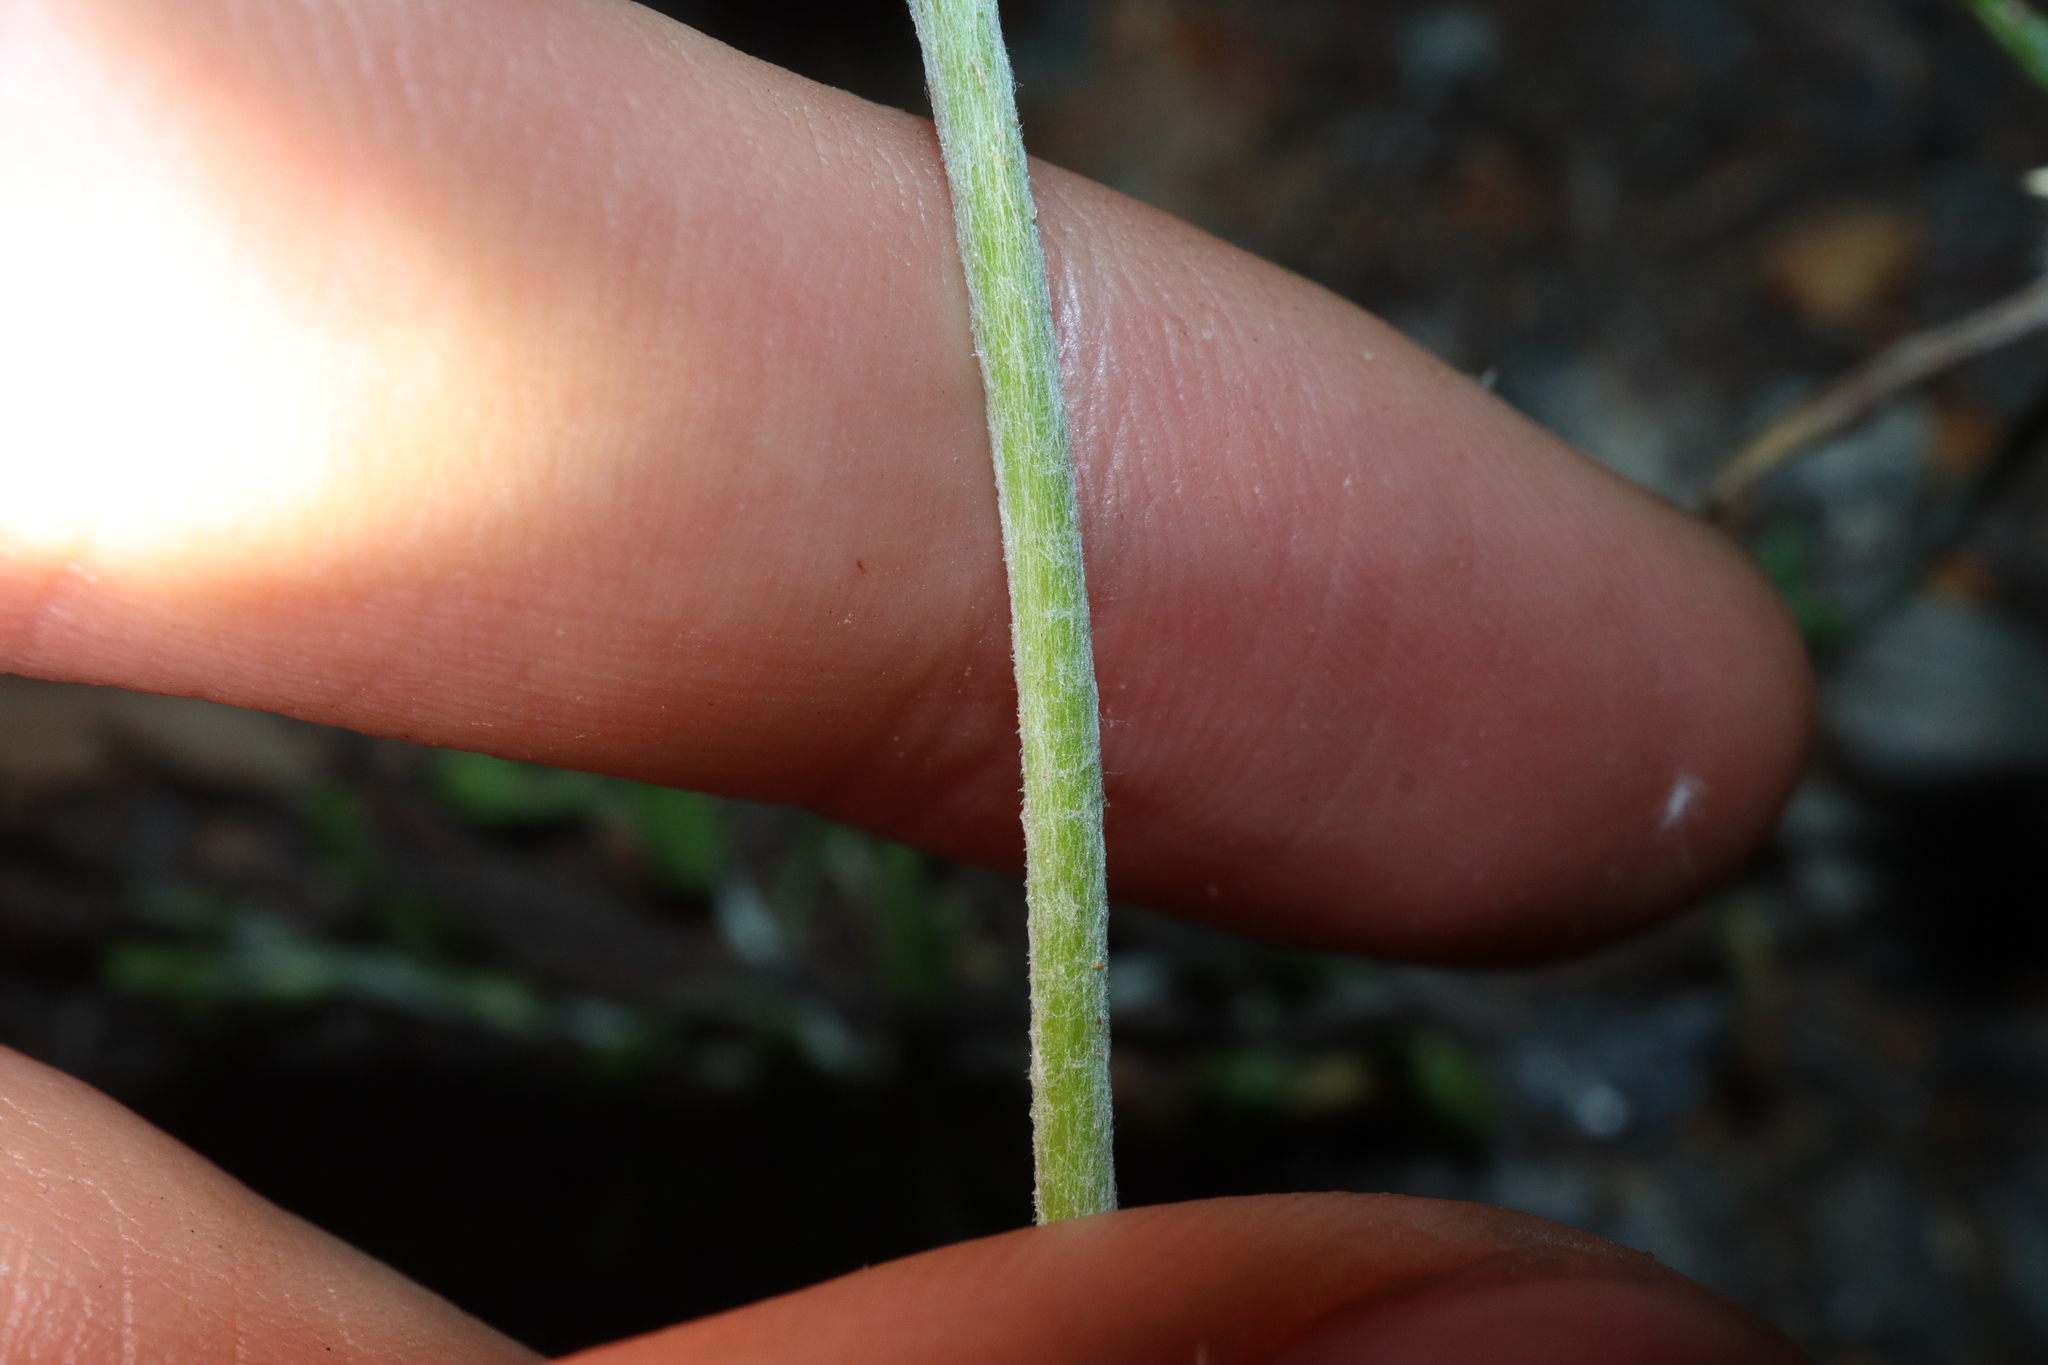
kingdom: Plantae
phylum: Tracheophyta
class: Magnoliopsida
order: Asterales
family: Asteraceae
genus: Euchiton
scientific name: Euchiton sphaericus
